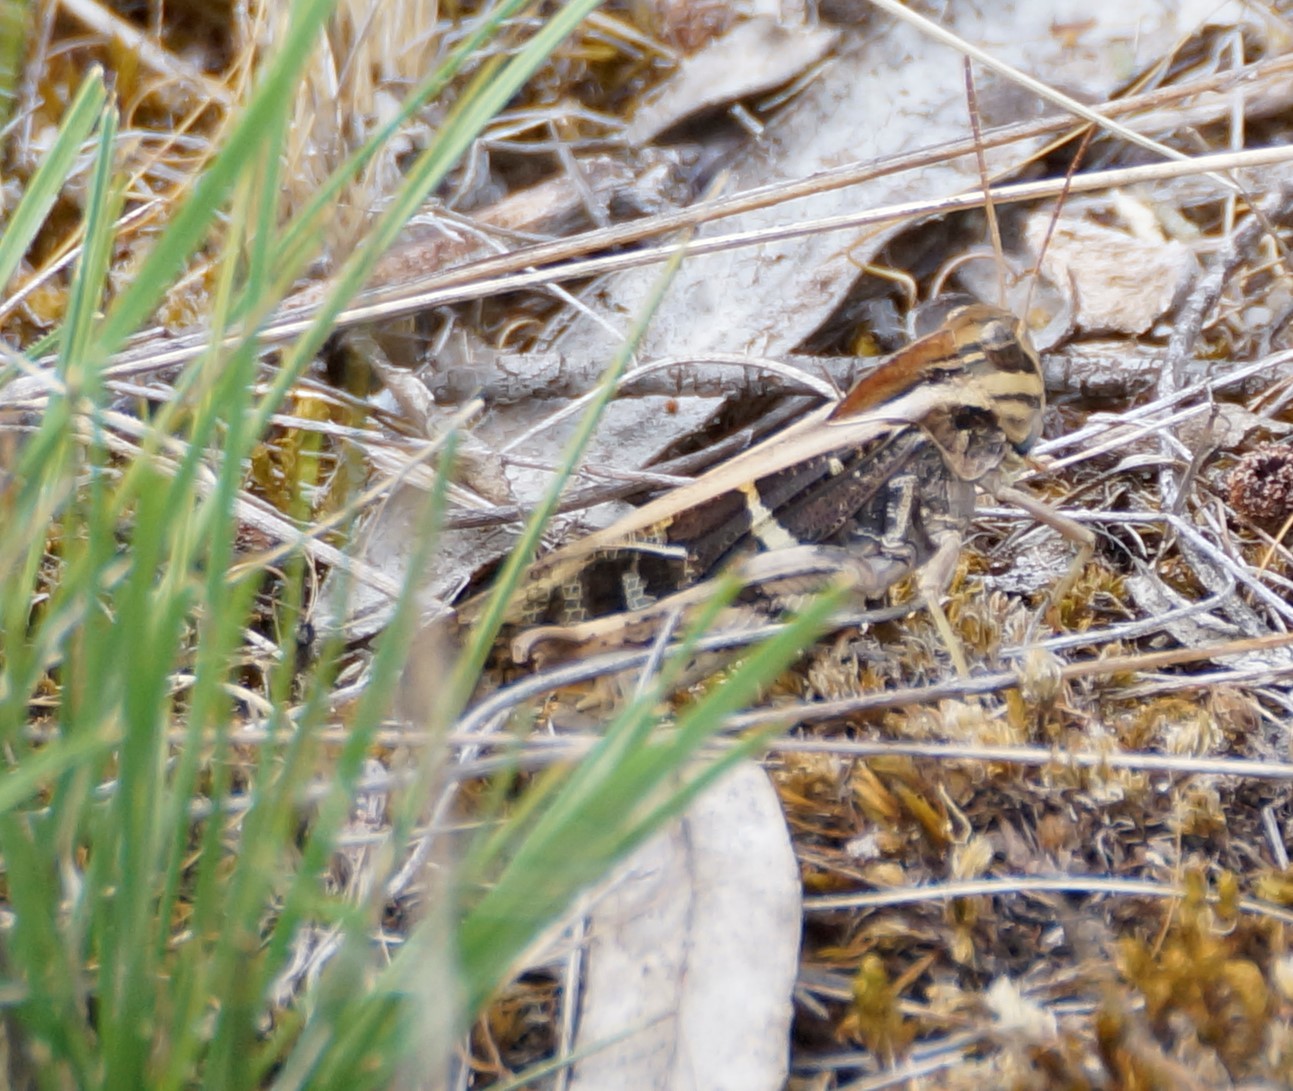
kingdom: Animalia
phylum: Arthropoda
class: Insecta
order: Orthoptera
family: Acrididae
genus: Gastrimargus
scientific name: Gastrimargus musicus
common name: Yellow-winged locust
